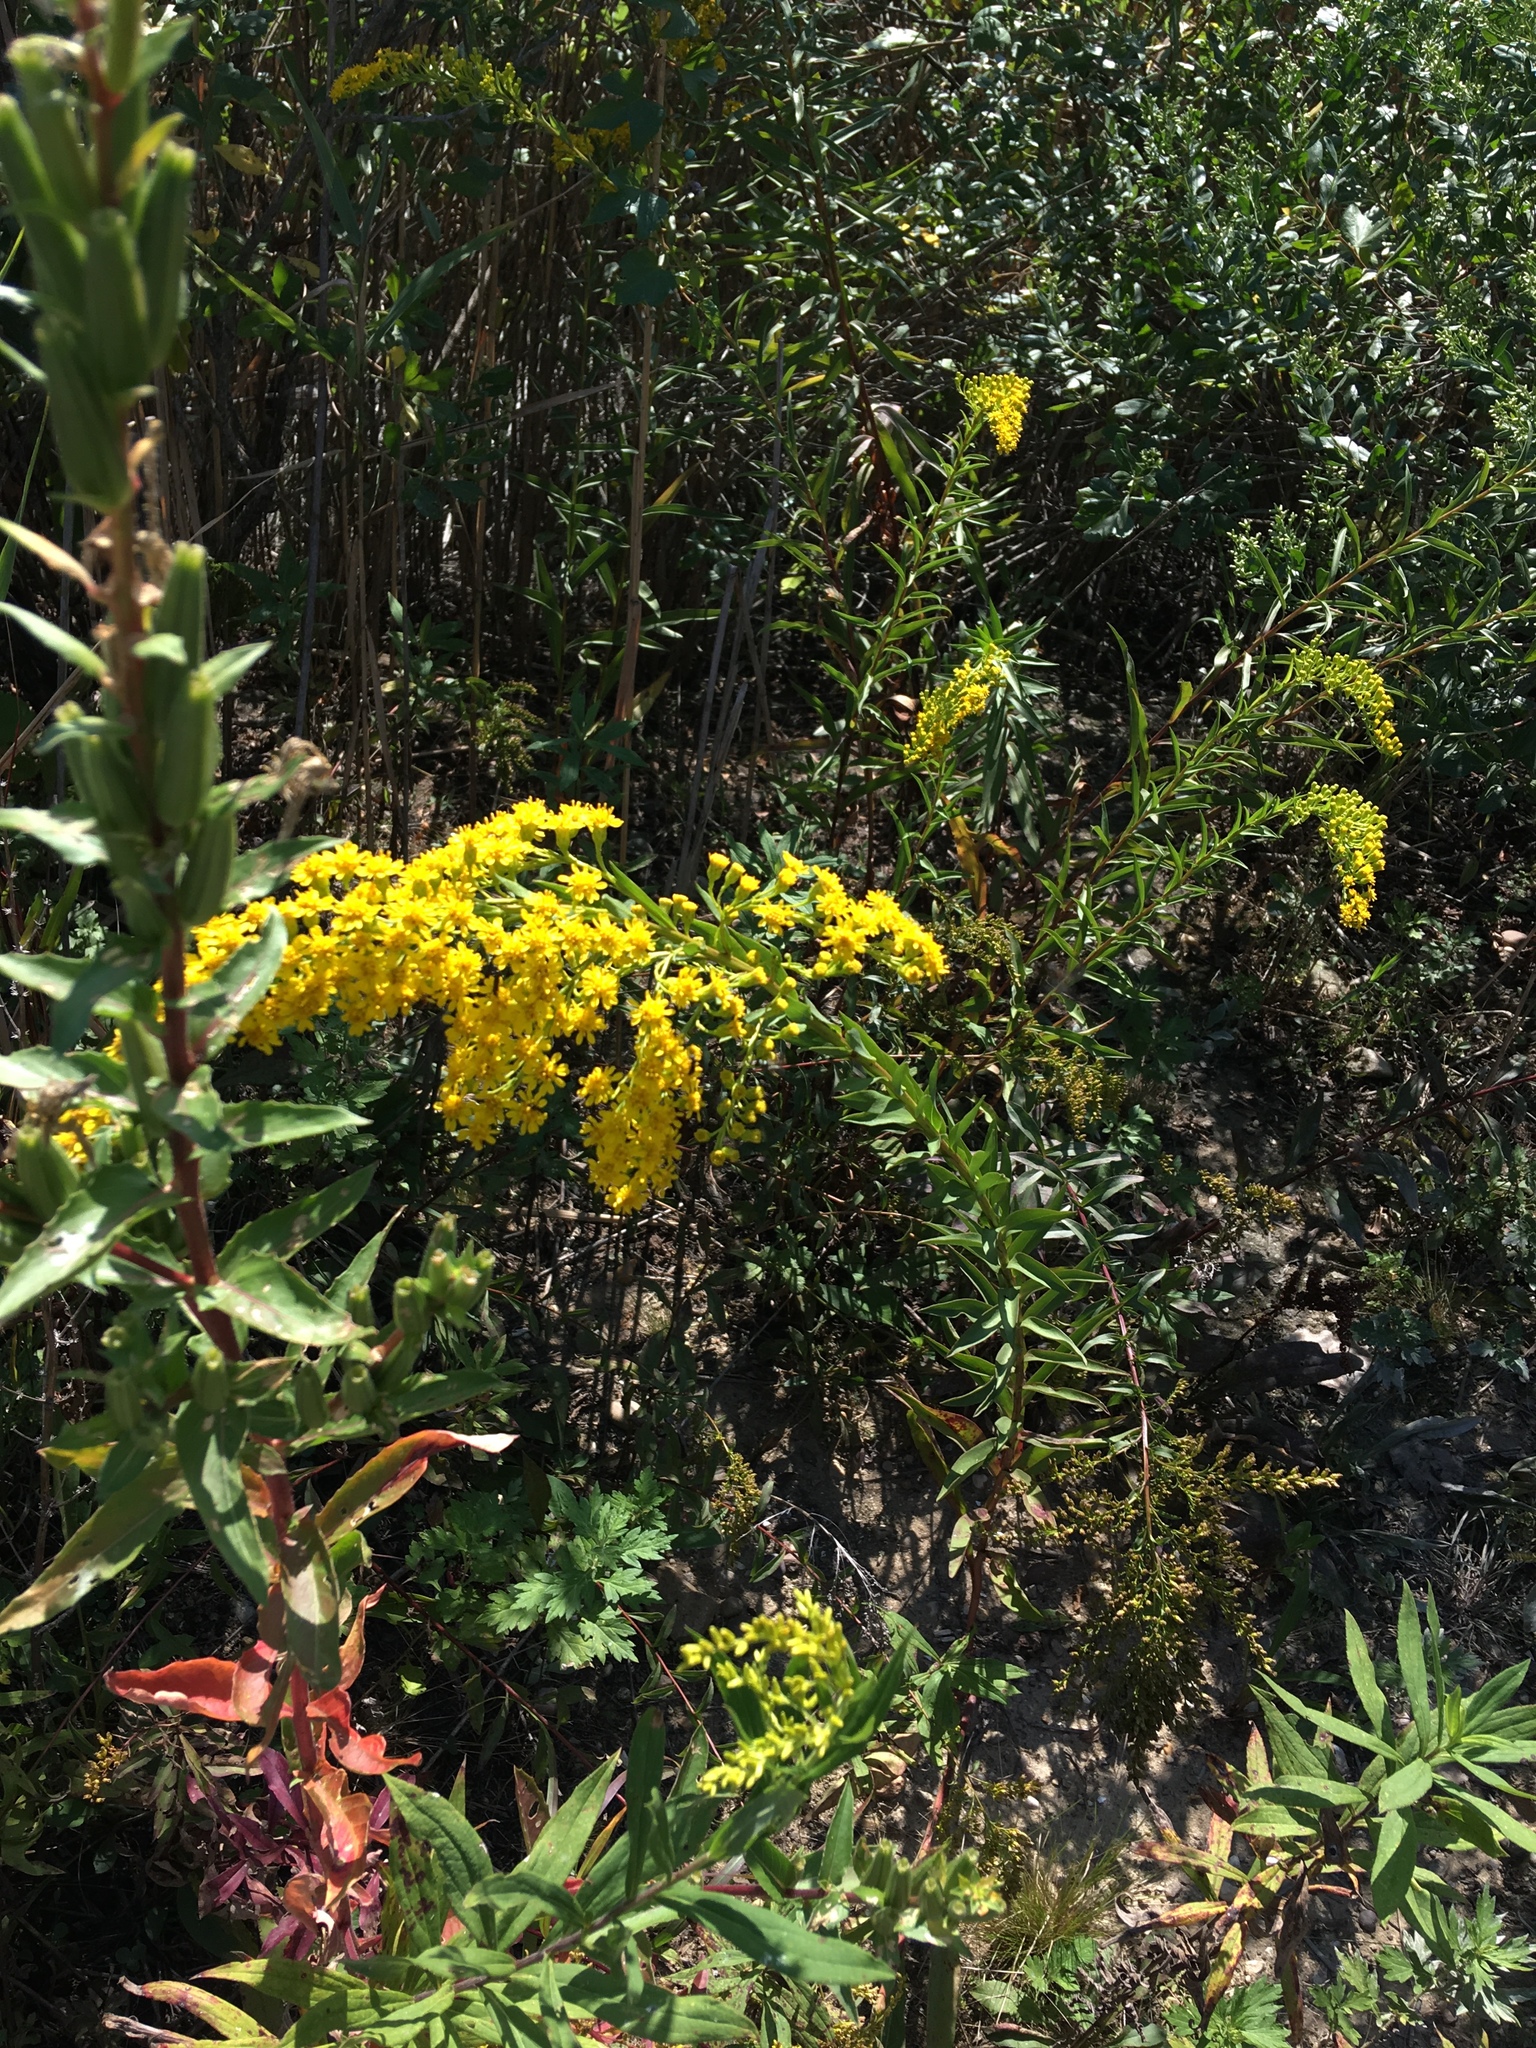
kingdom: Plantae
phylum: Tracheophyta
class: Magnoliopsida
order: Asterales
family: Asteraceae
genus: Solidago
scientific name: Solidago odora
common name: Anise-scented goldenrod
